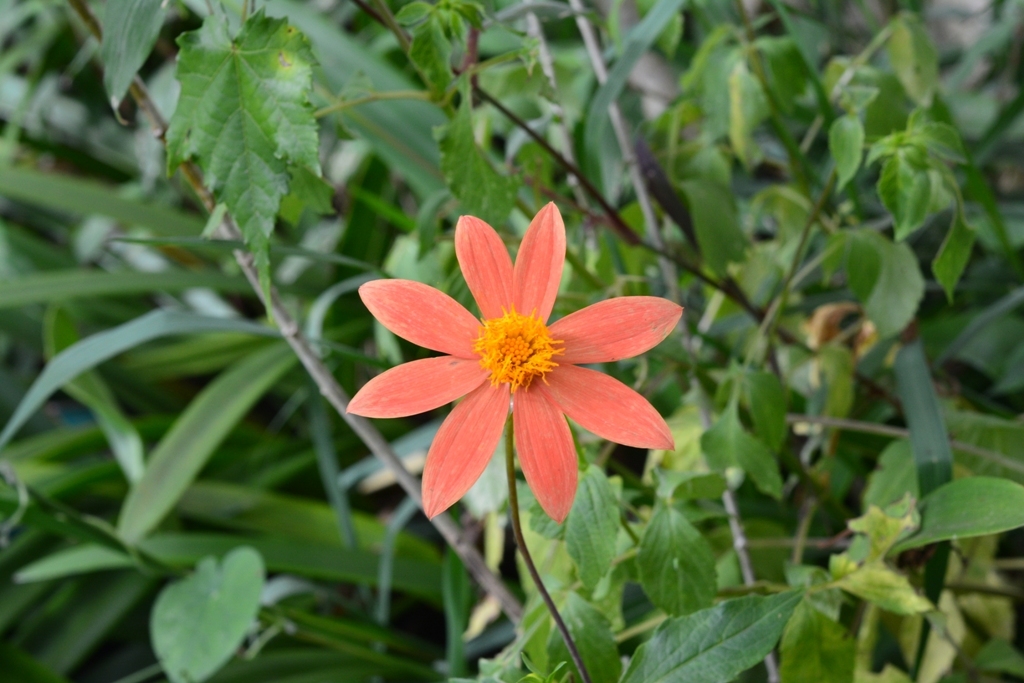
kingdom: Plantae
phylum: Tracheophyta
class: Magnoliopsida
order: Asterales
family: Asteraceae
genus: Dahlia
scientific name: Dahlia coccinea
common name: Red dahlia
